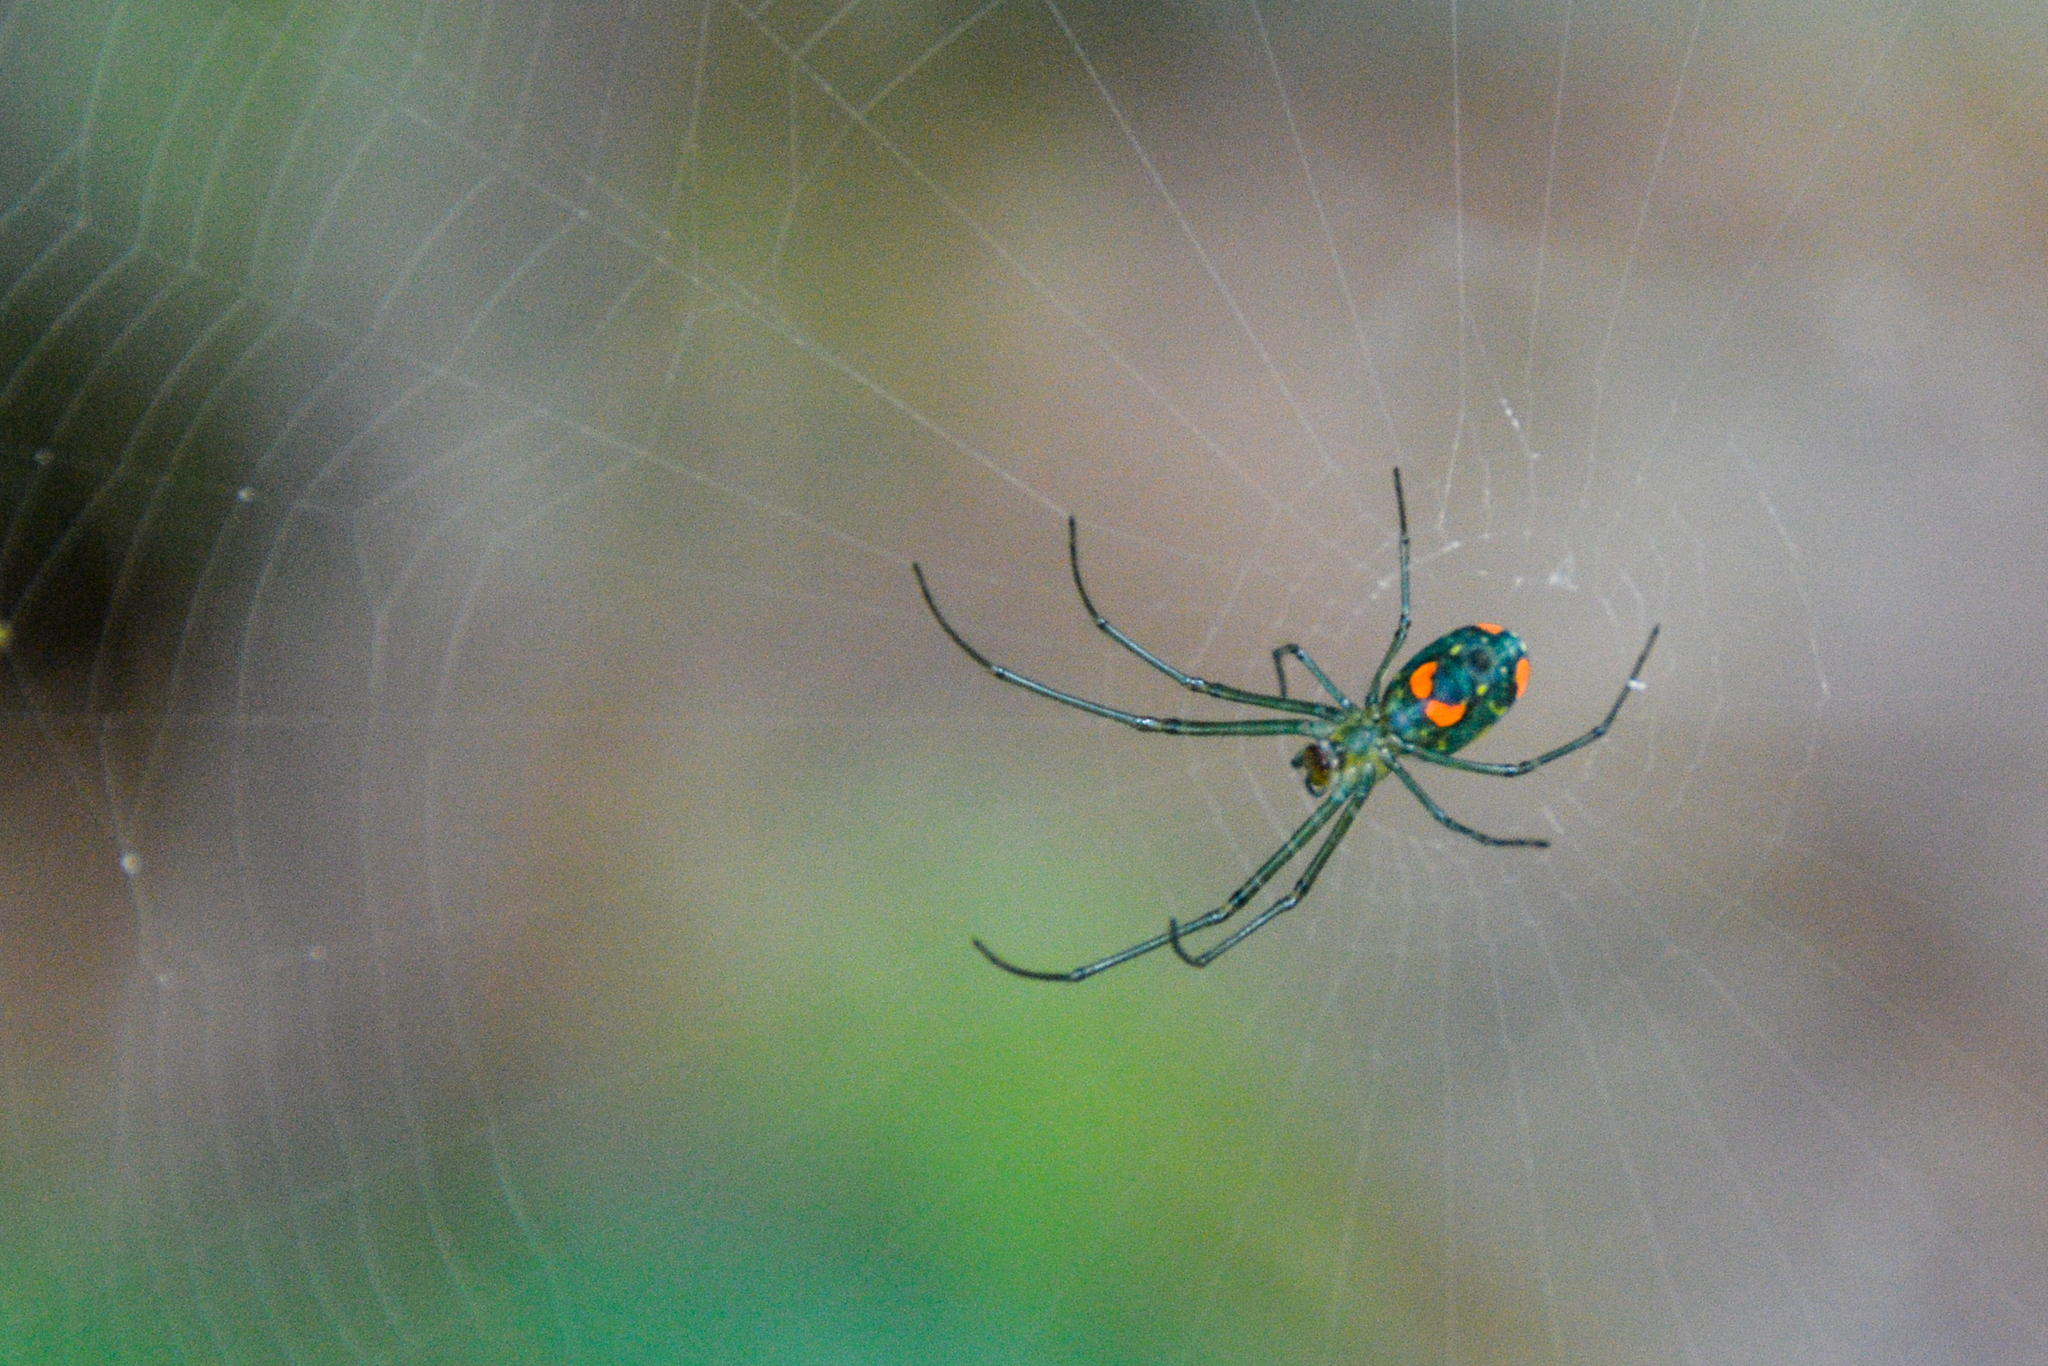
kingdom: Animalia
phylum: Arthropoda
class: Arachnida
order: Araneae
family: Tetragnathidae
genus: Leucauge
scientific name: Leucauge argyrobapta
